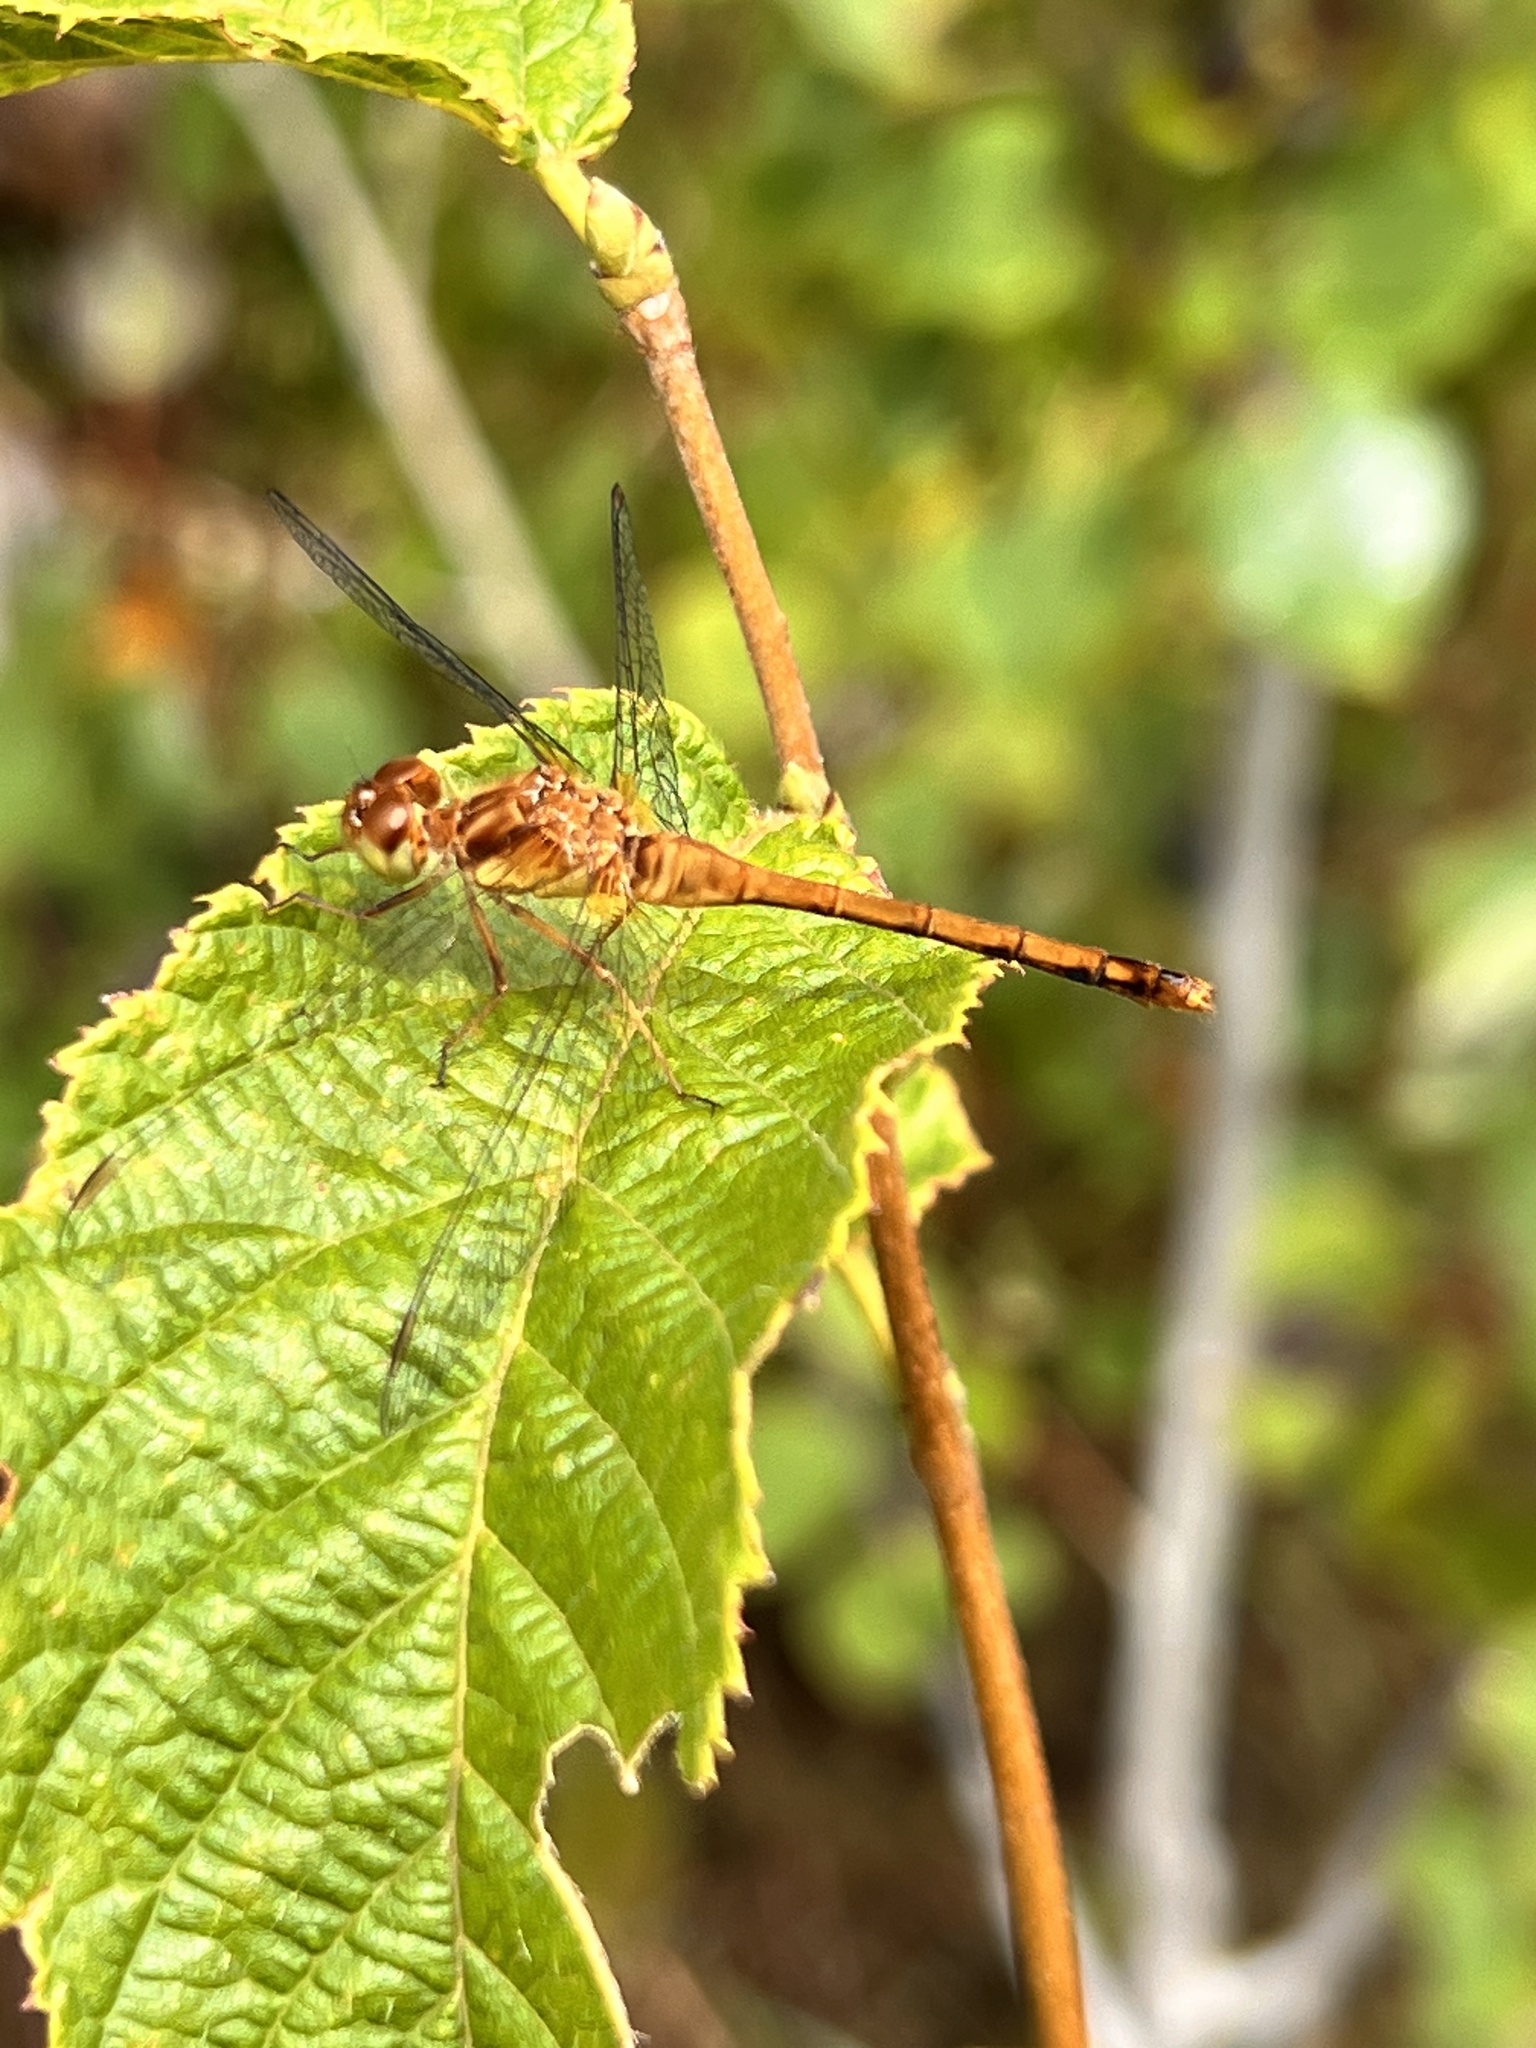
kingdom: Animalia
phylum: Arthropoda
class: Insecta
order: Odonata
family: Libellulidae
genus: Sympetrum
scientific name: Sympetrum vicinum
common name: Autumn meadowhawk
